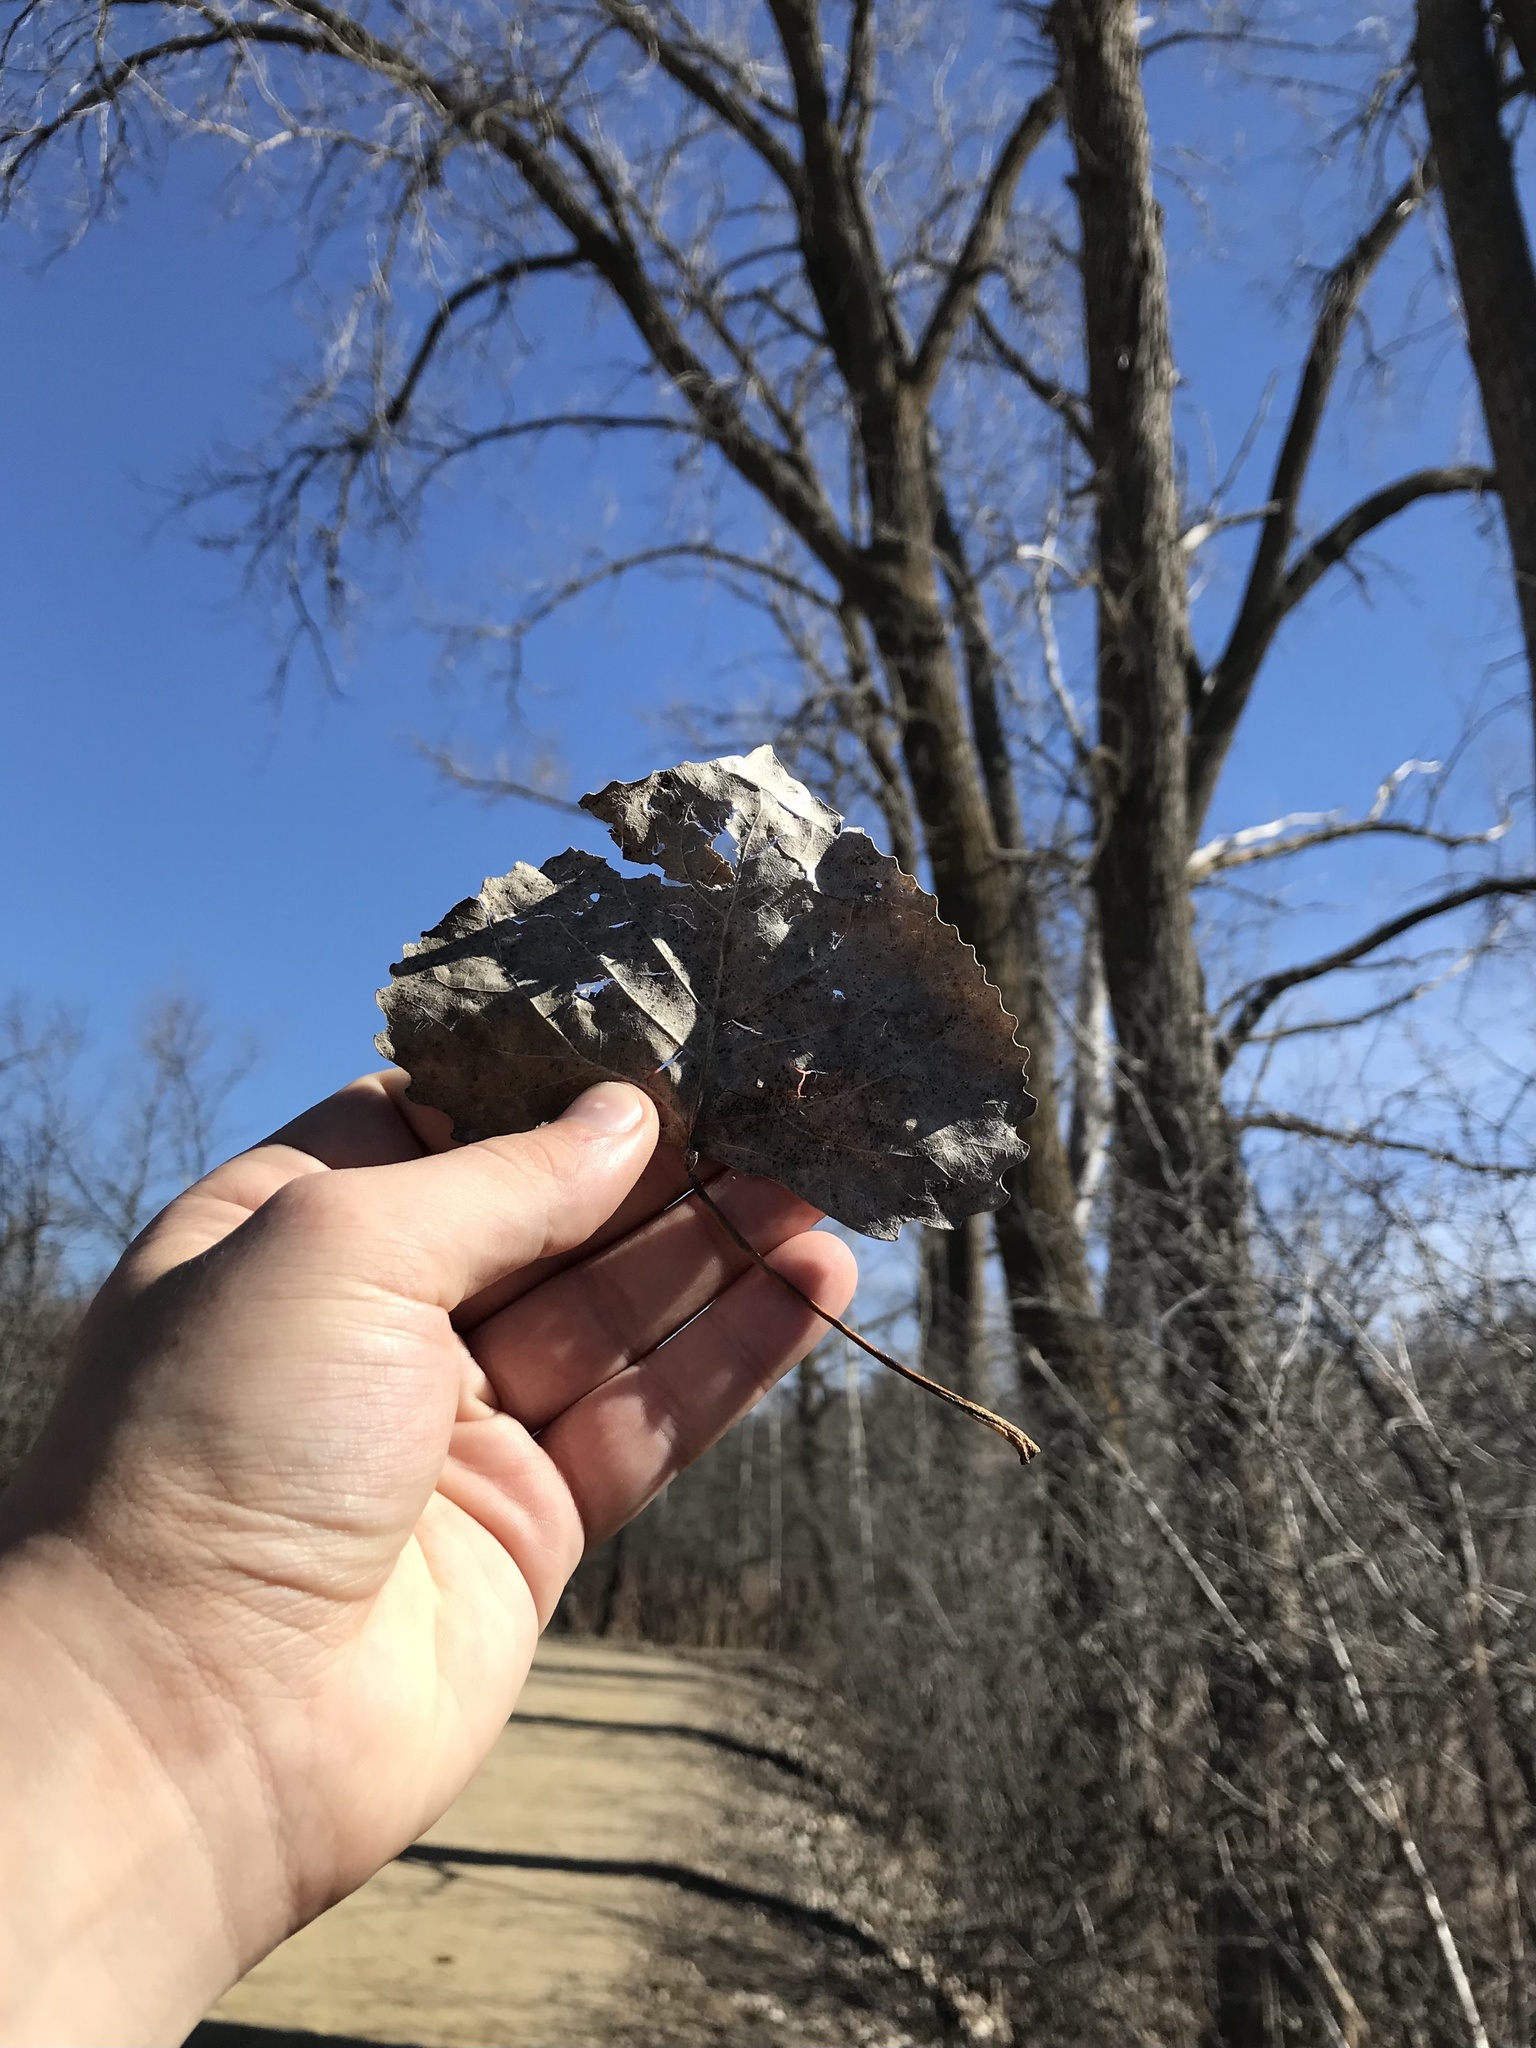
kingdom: Plantae
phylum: Tracheophyta
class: Magnoliopsida
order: Malpighiales
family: Salicaceae
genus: Populus
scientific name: Populus deltoides
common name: Eastern cottonwood
